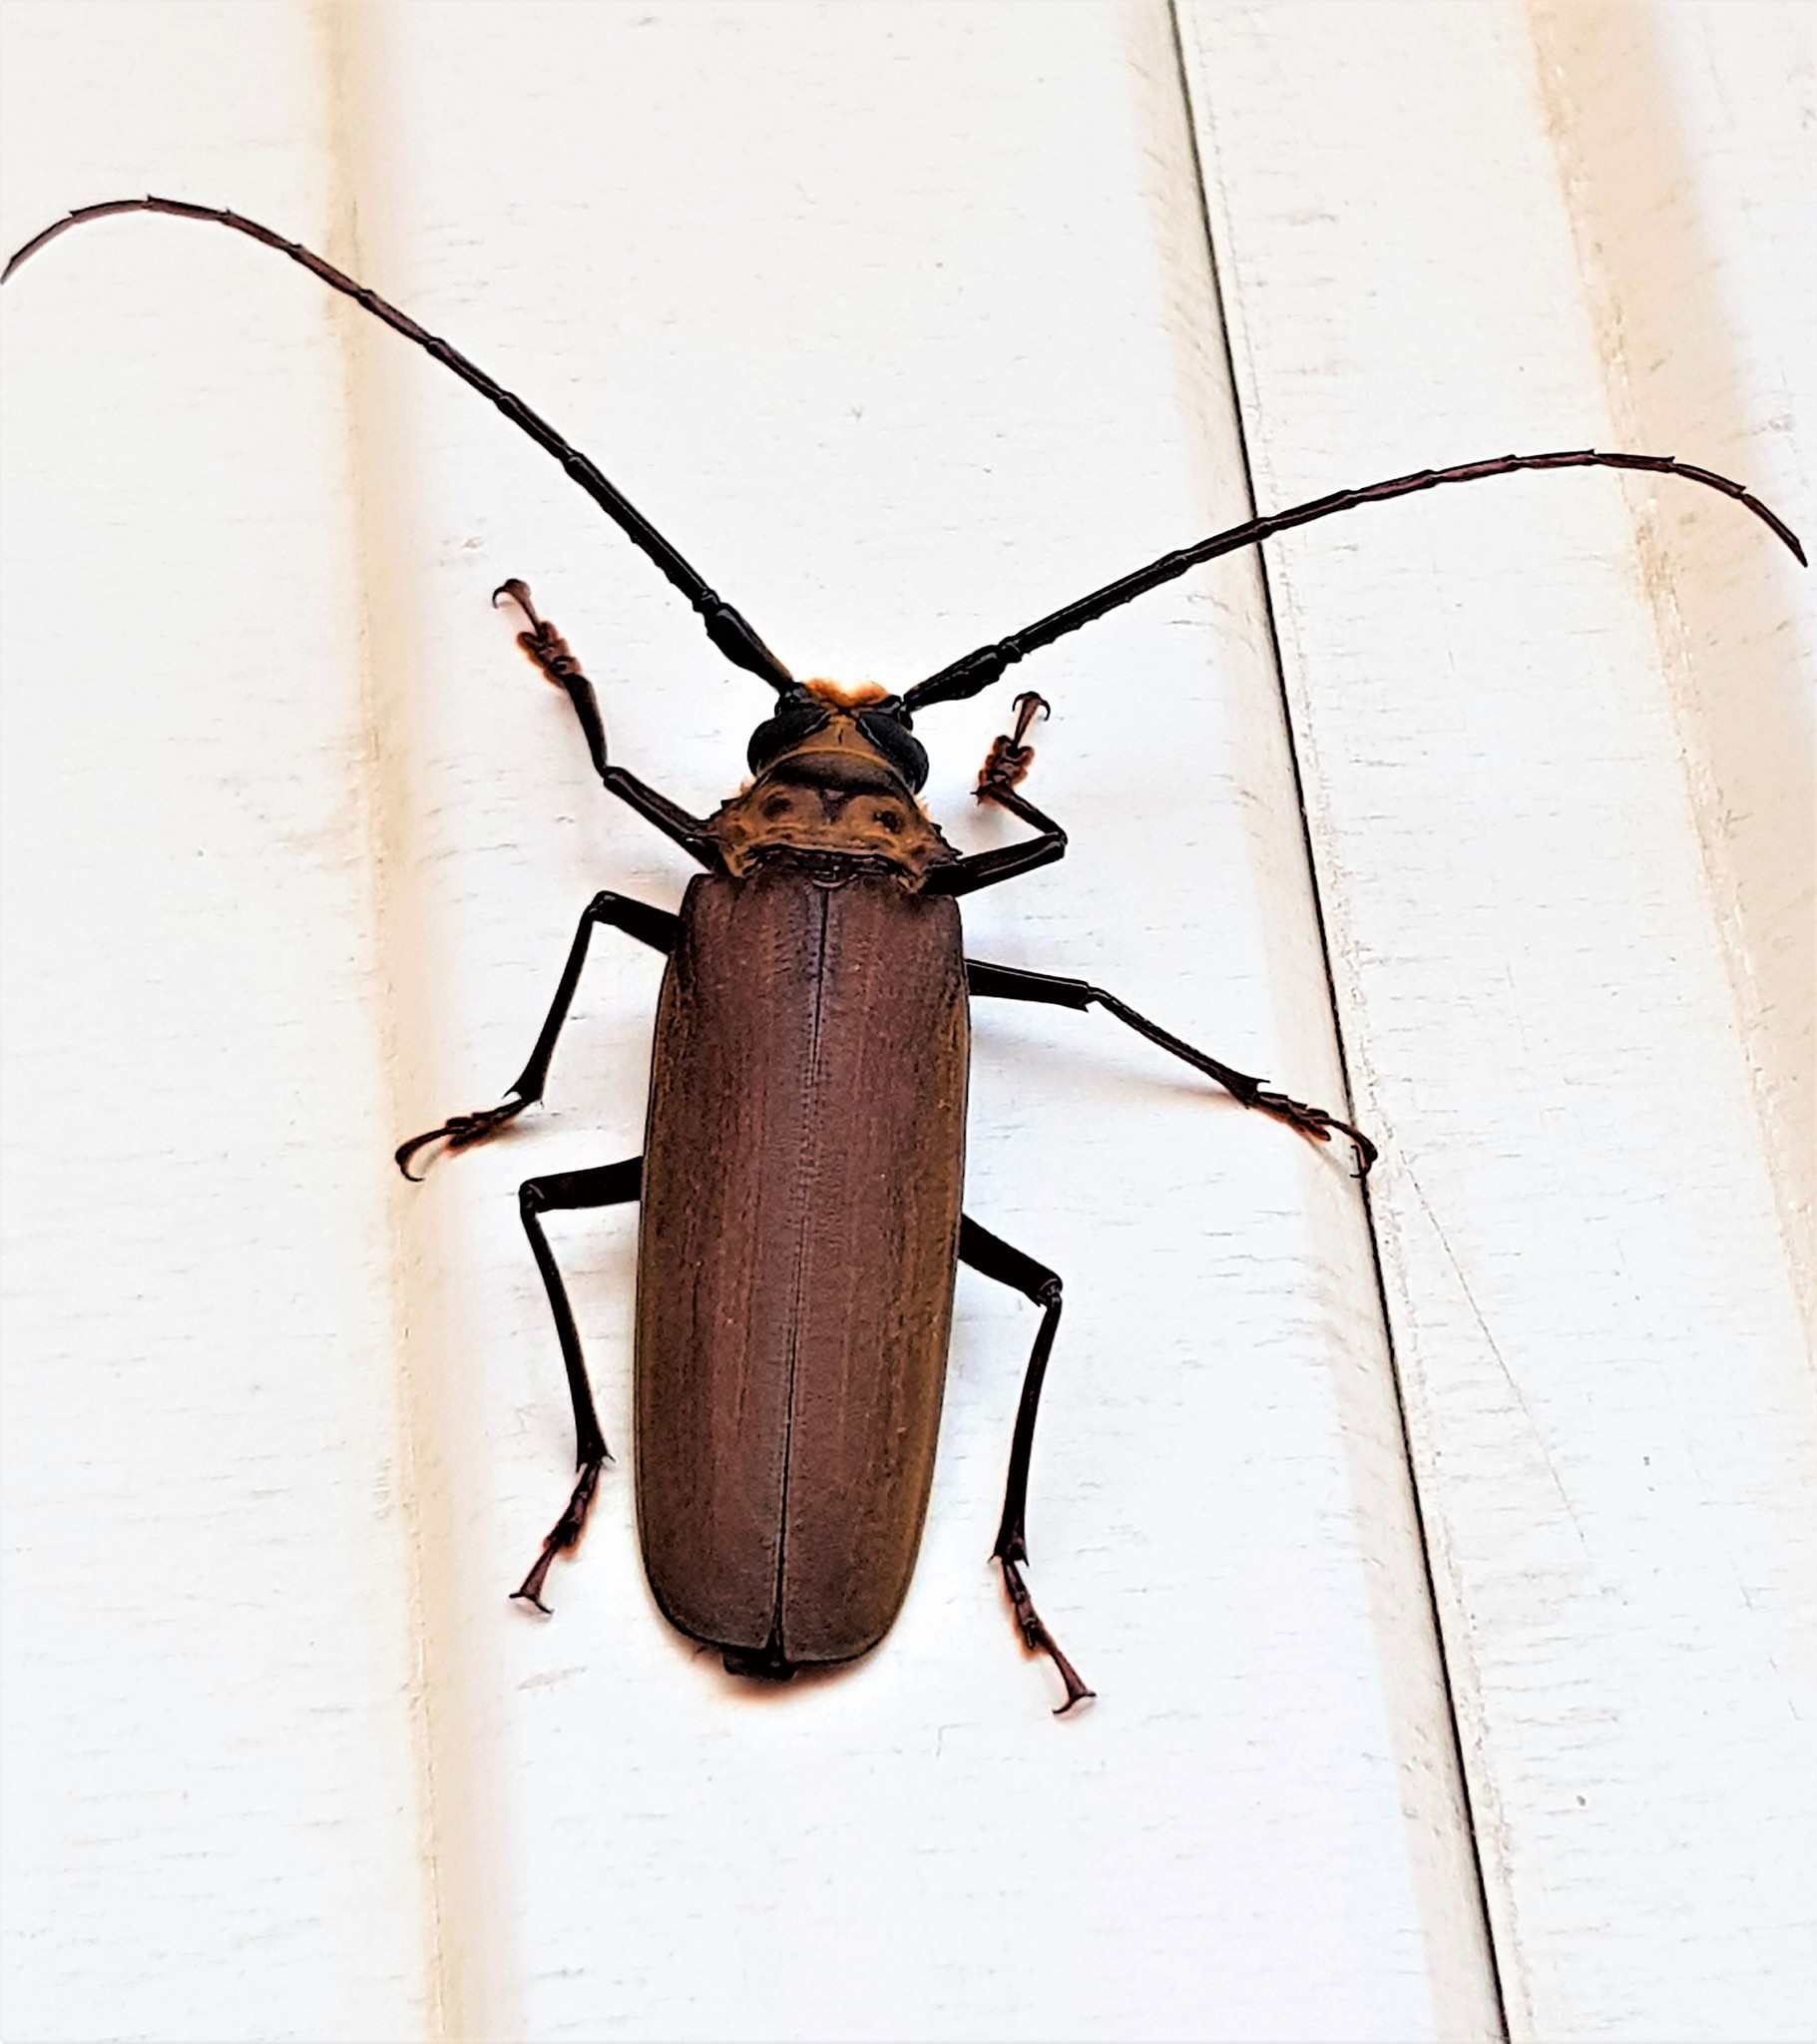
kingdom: Animalia
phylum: Arthropoda
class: Insecta
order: Coleoptera
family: Cerambycidae
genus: Orthomegas
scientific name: Orthomegas maryae
